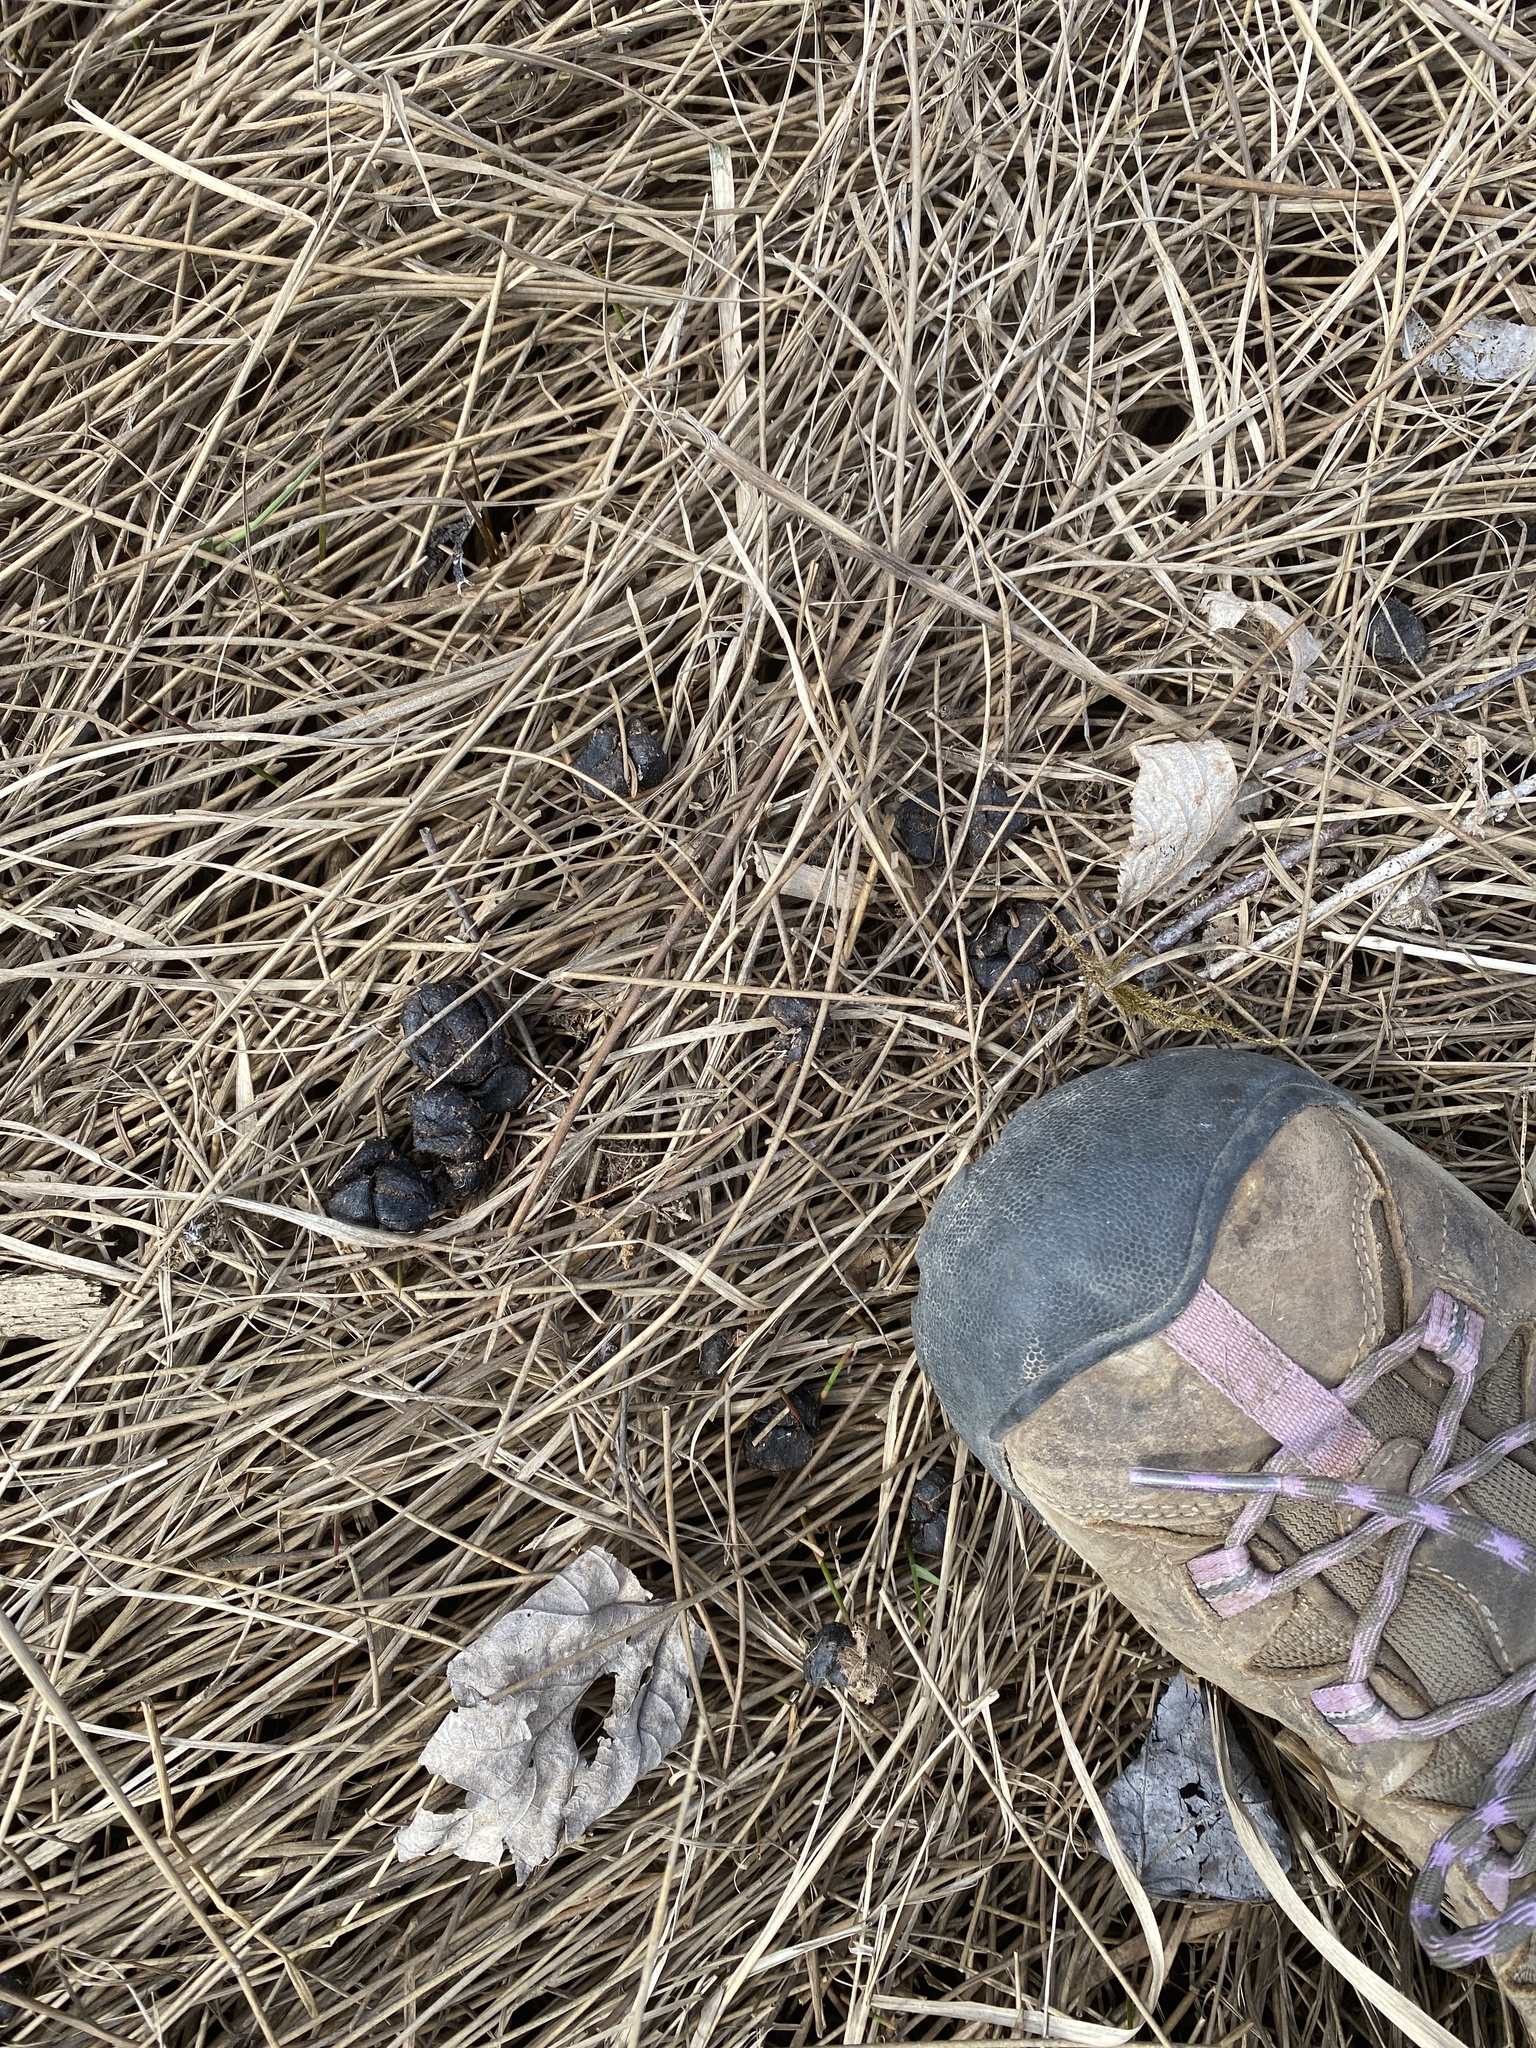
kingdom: Animalia
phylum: Chordata
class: Mammalia
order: Artiodactyla
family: Cervidae
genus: Odocoileus
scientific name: Odocoileus virginianus
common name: White-tailed deer
